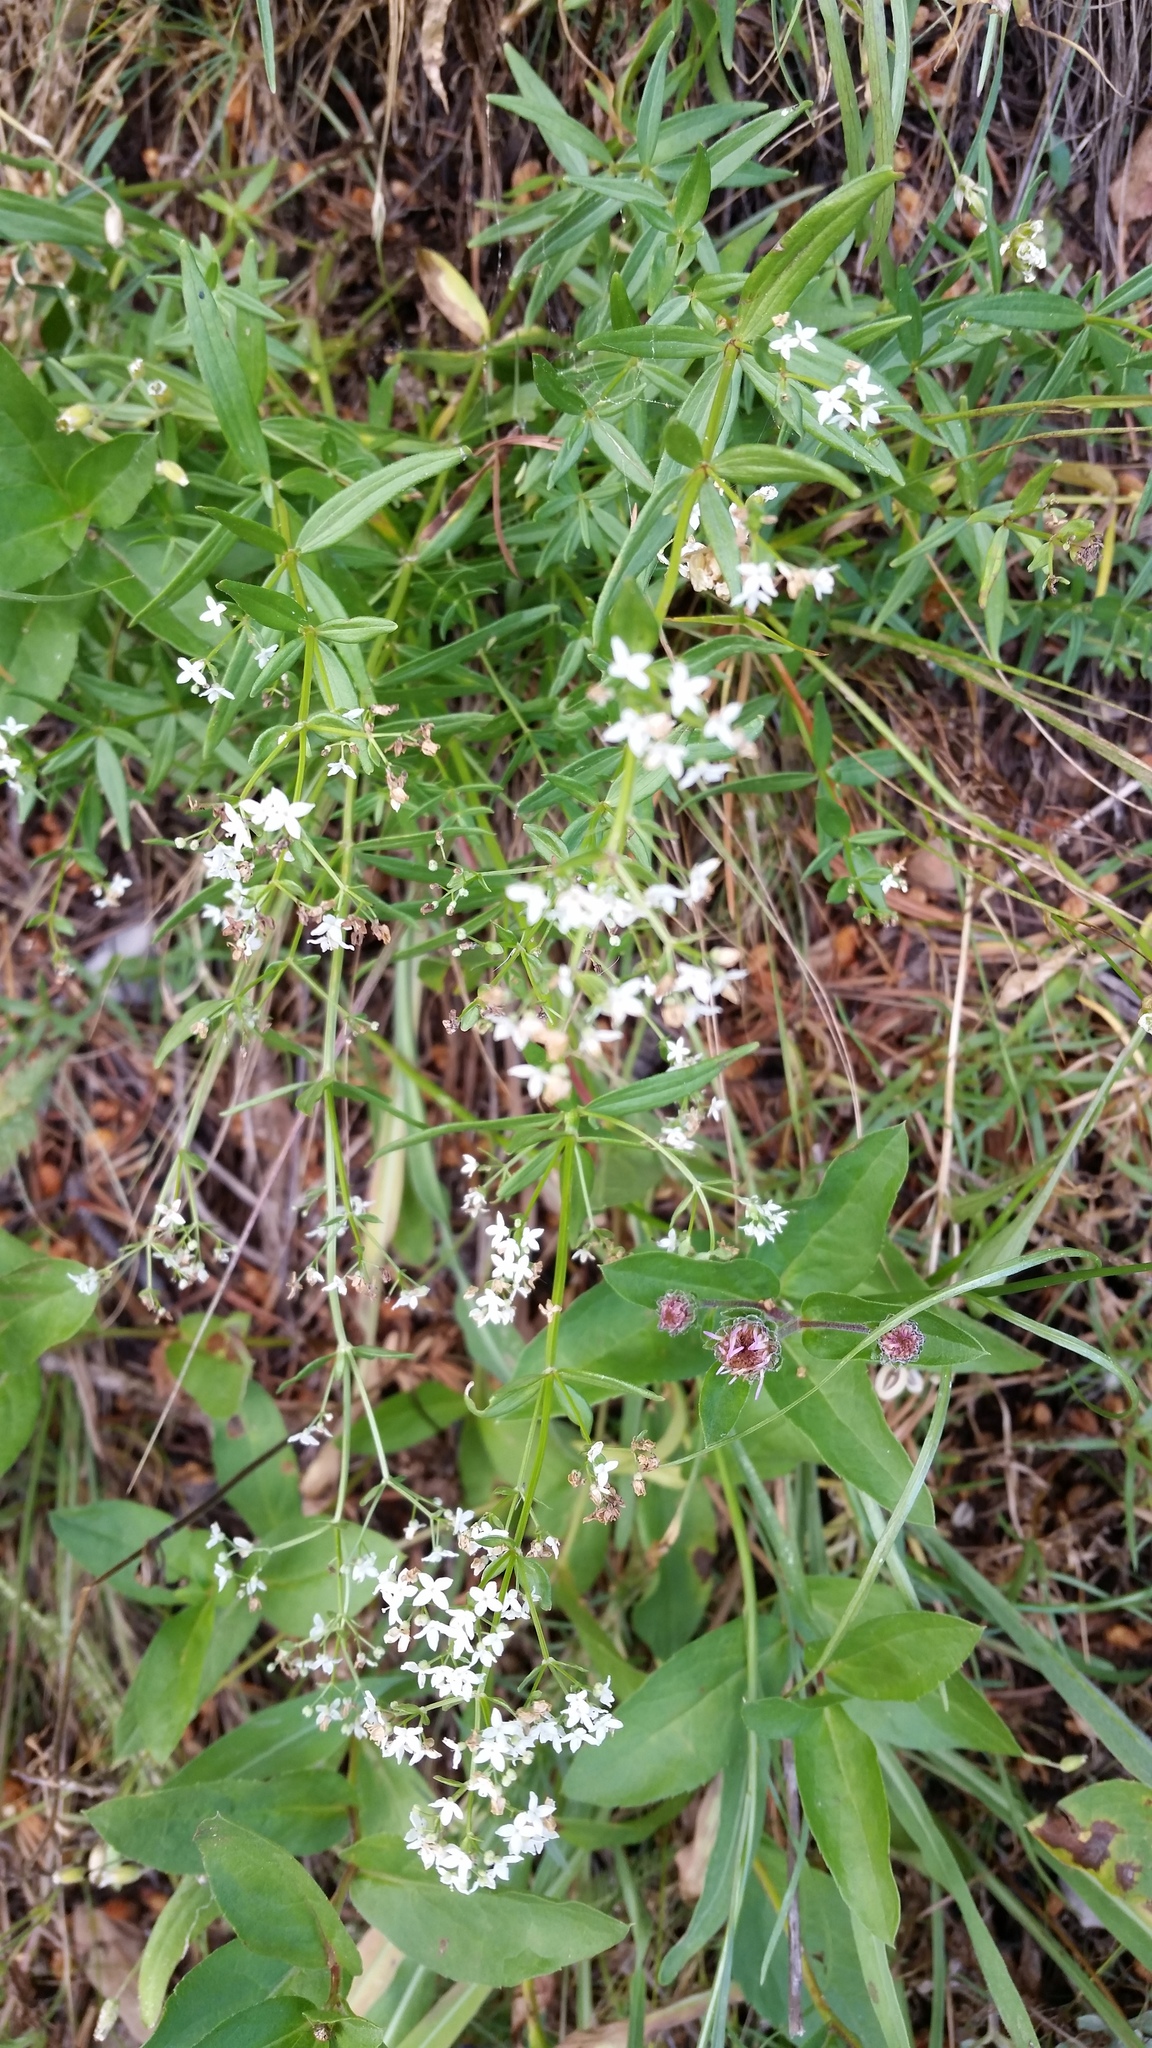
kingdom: Plantae
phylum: Tracheophyta
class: Magnoliopsida
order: Gentianales
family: Rubiaceae
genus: Galium
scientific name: Galium boreale
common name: Northern bedstraw
